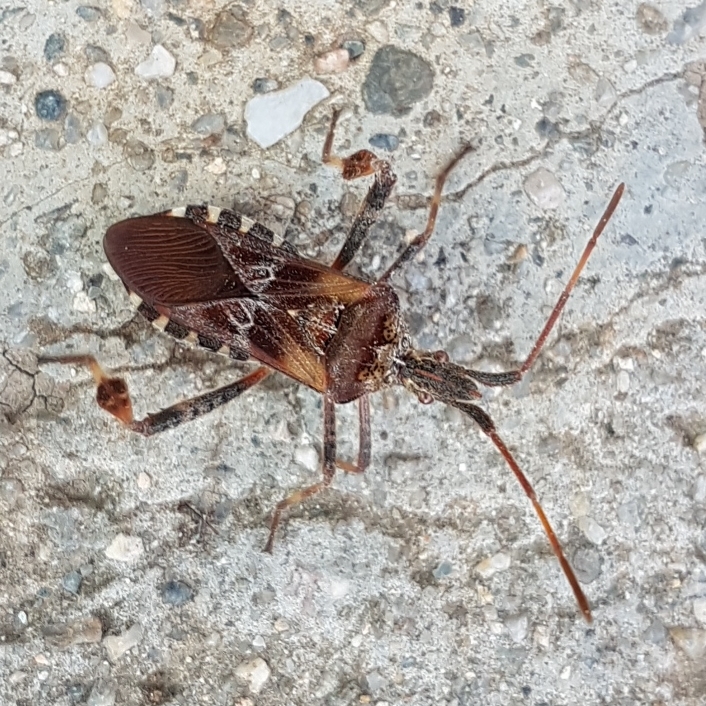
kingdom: Animalia
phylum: Arthropoda
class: Insecta
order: Hemiptera
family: Coreidae
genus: Leptoglossus
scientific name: Leptoglossus occidentalis
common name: Western conifer-seed bug
